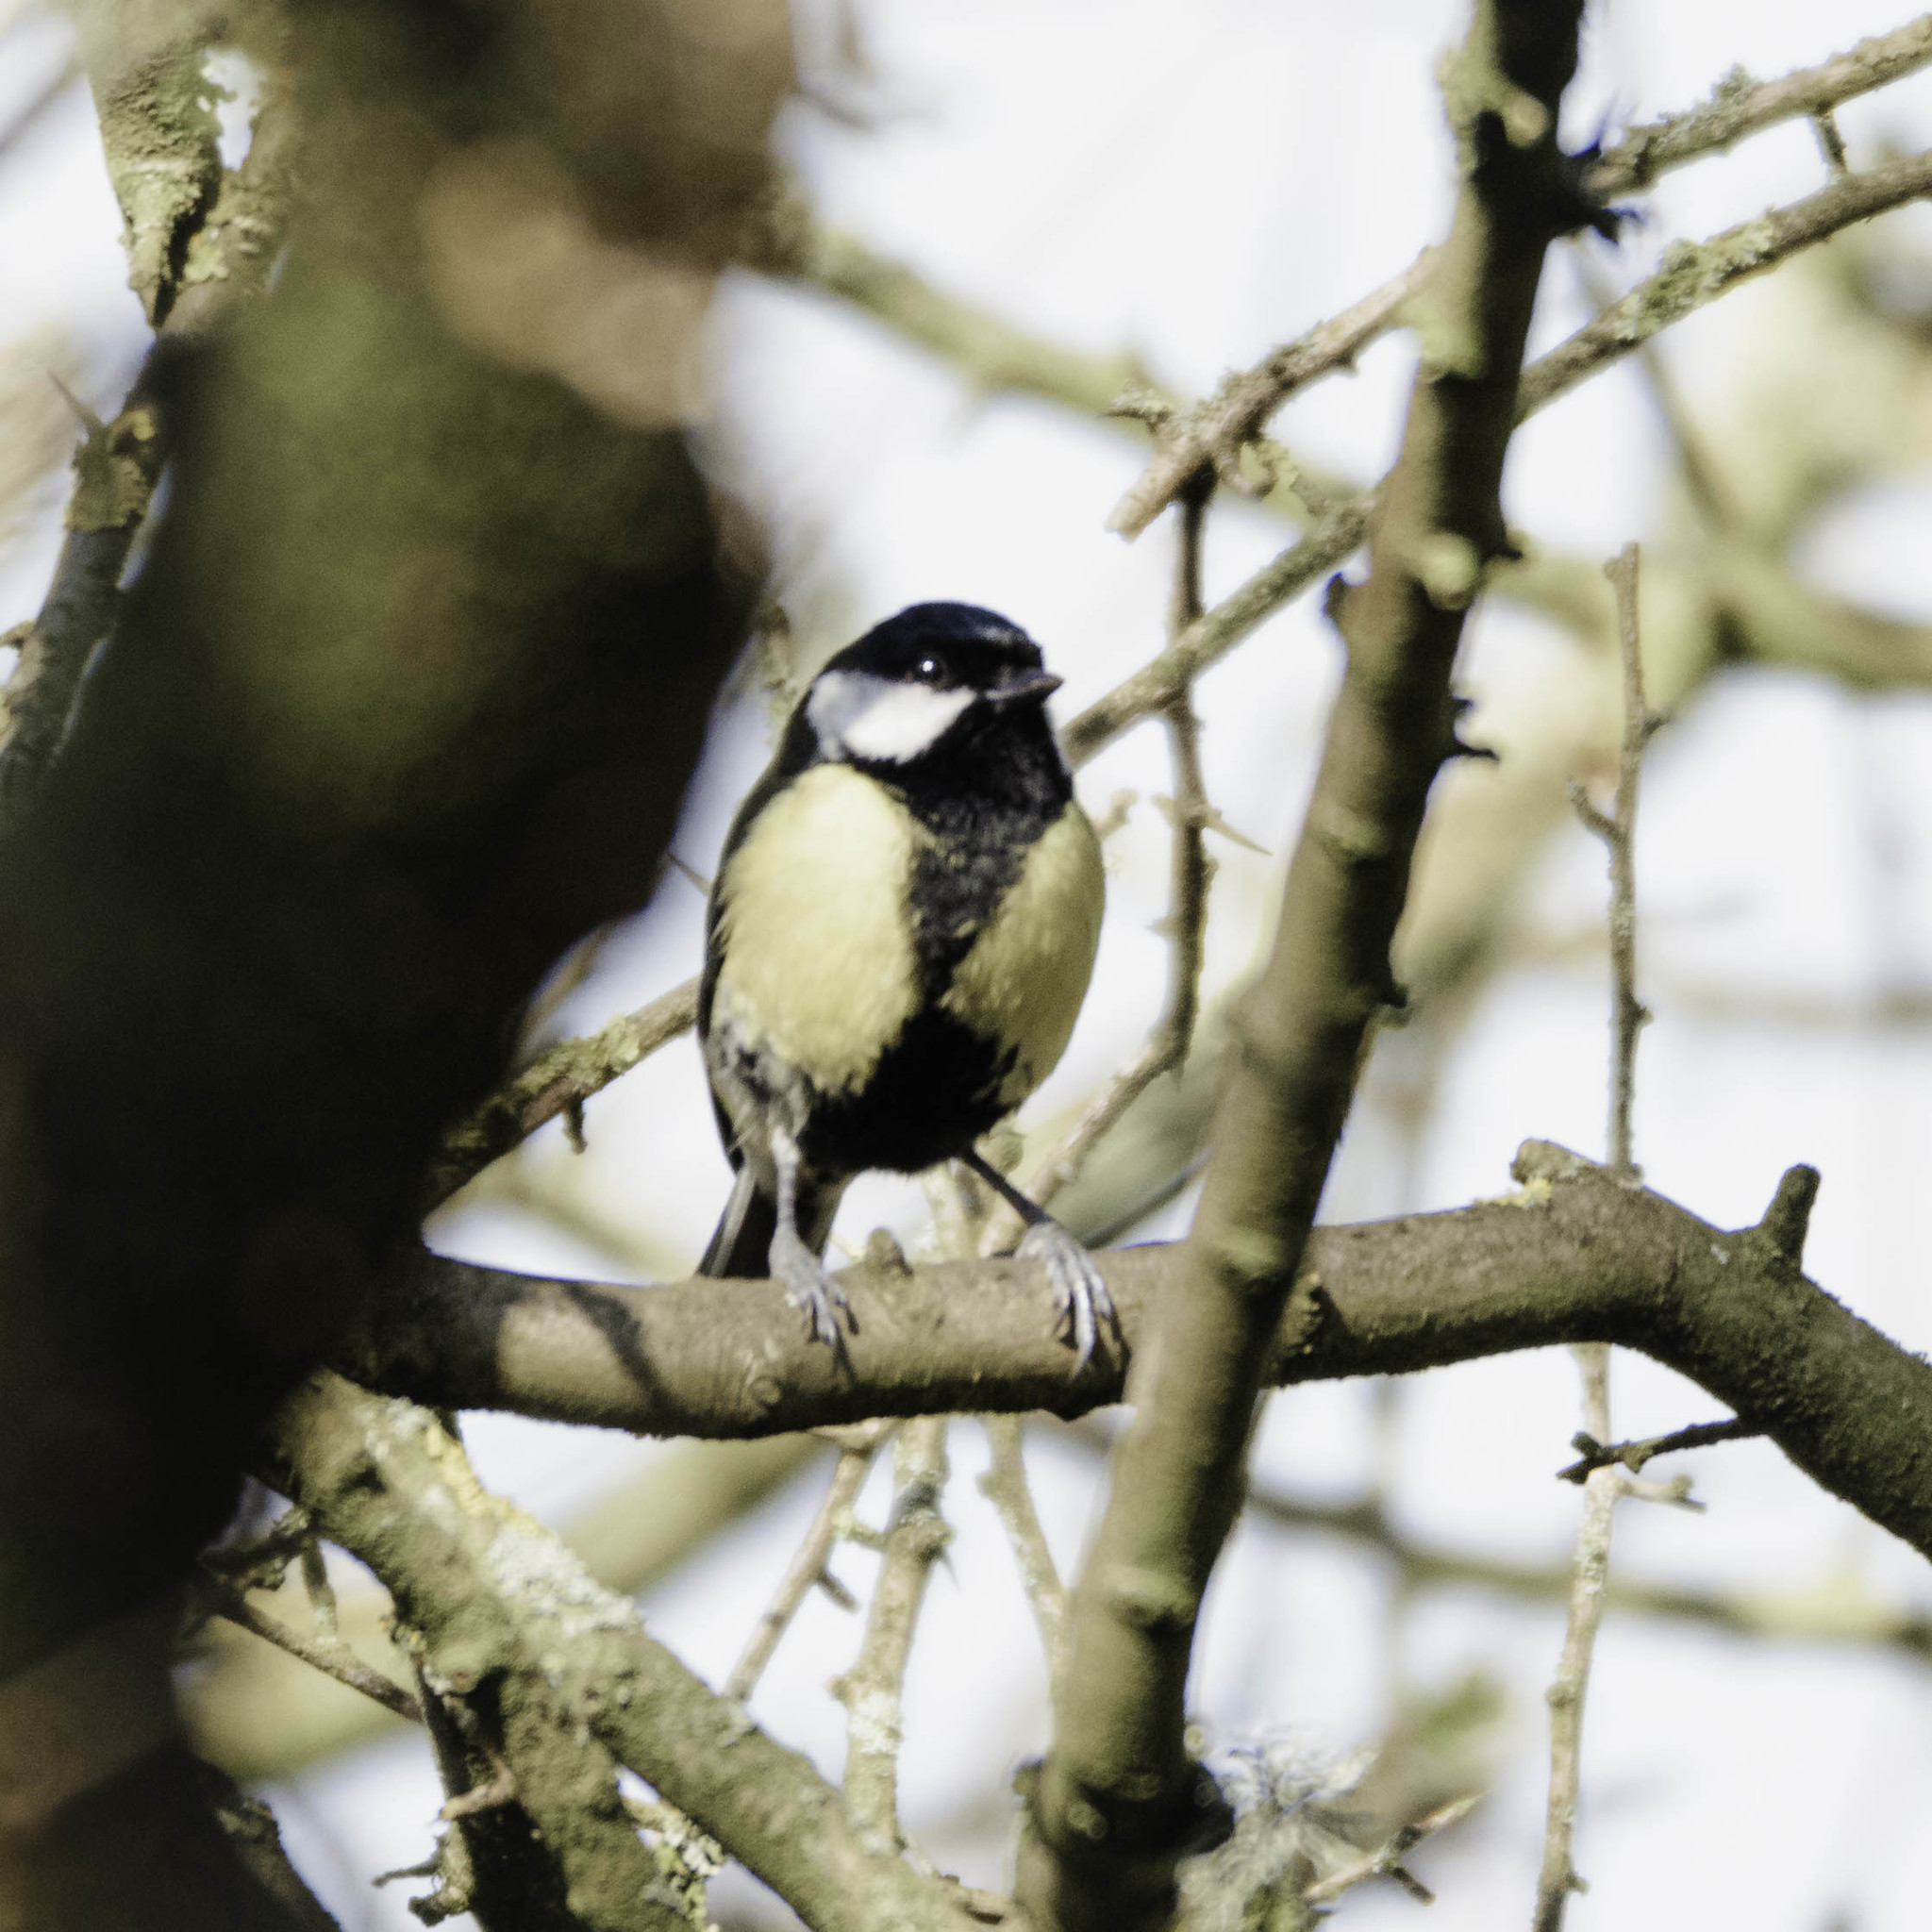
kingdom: Animalia
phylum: Chordata
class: Aves
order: Passeriformes
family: Paridae
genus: Parus
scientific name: Parus major
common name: Great tit
